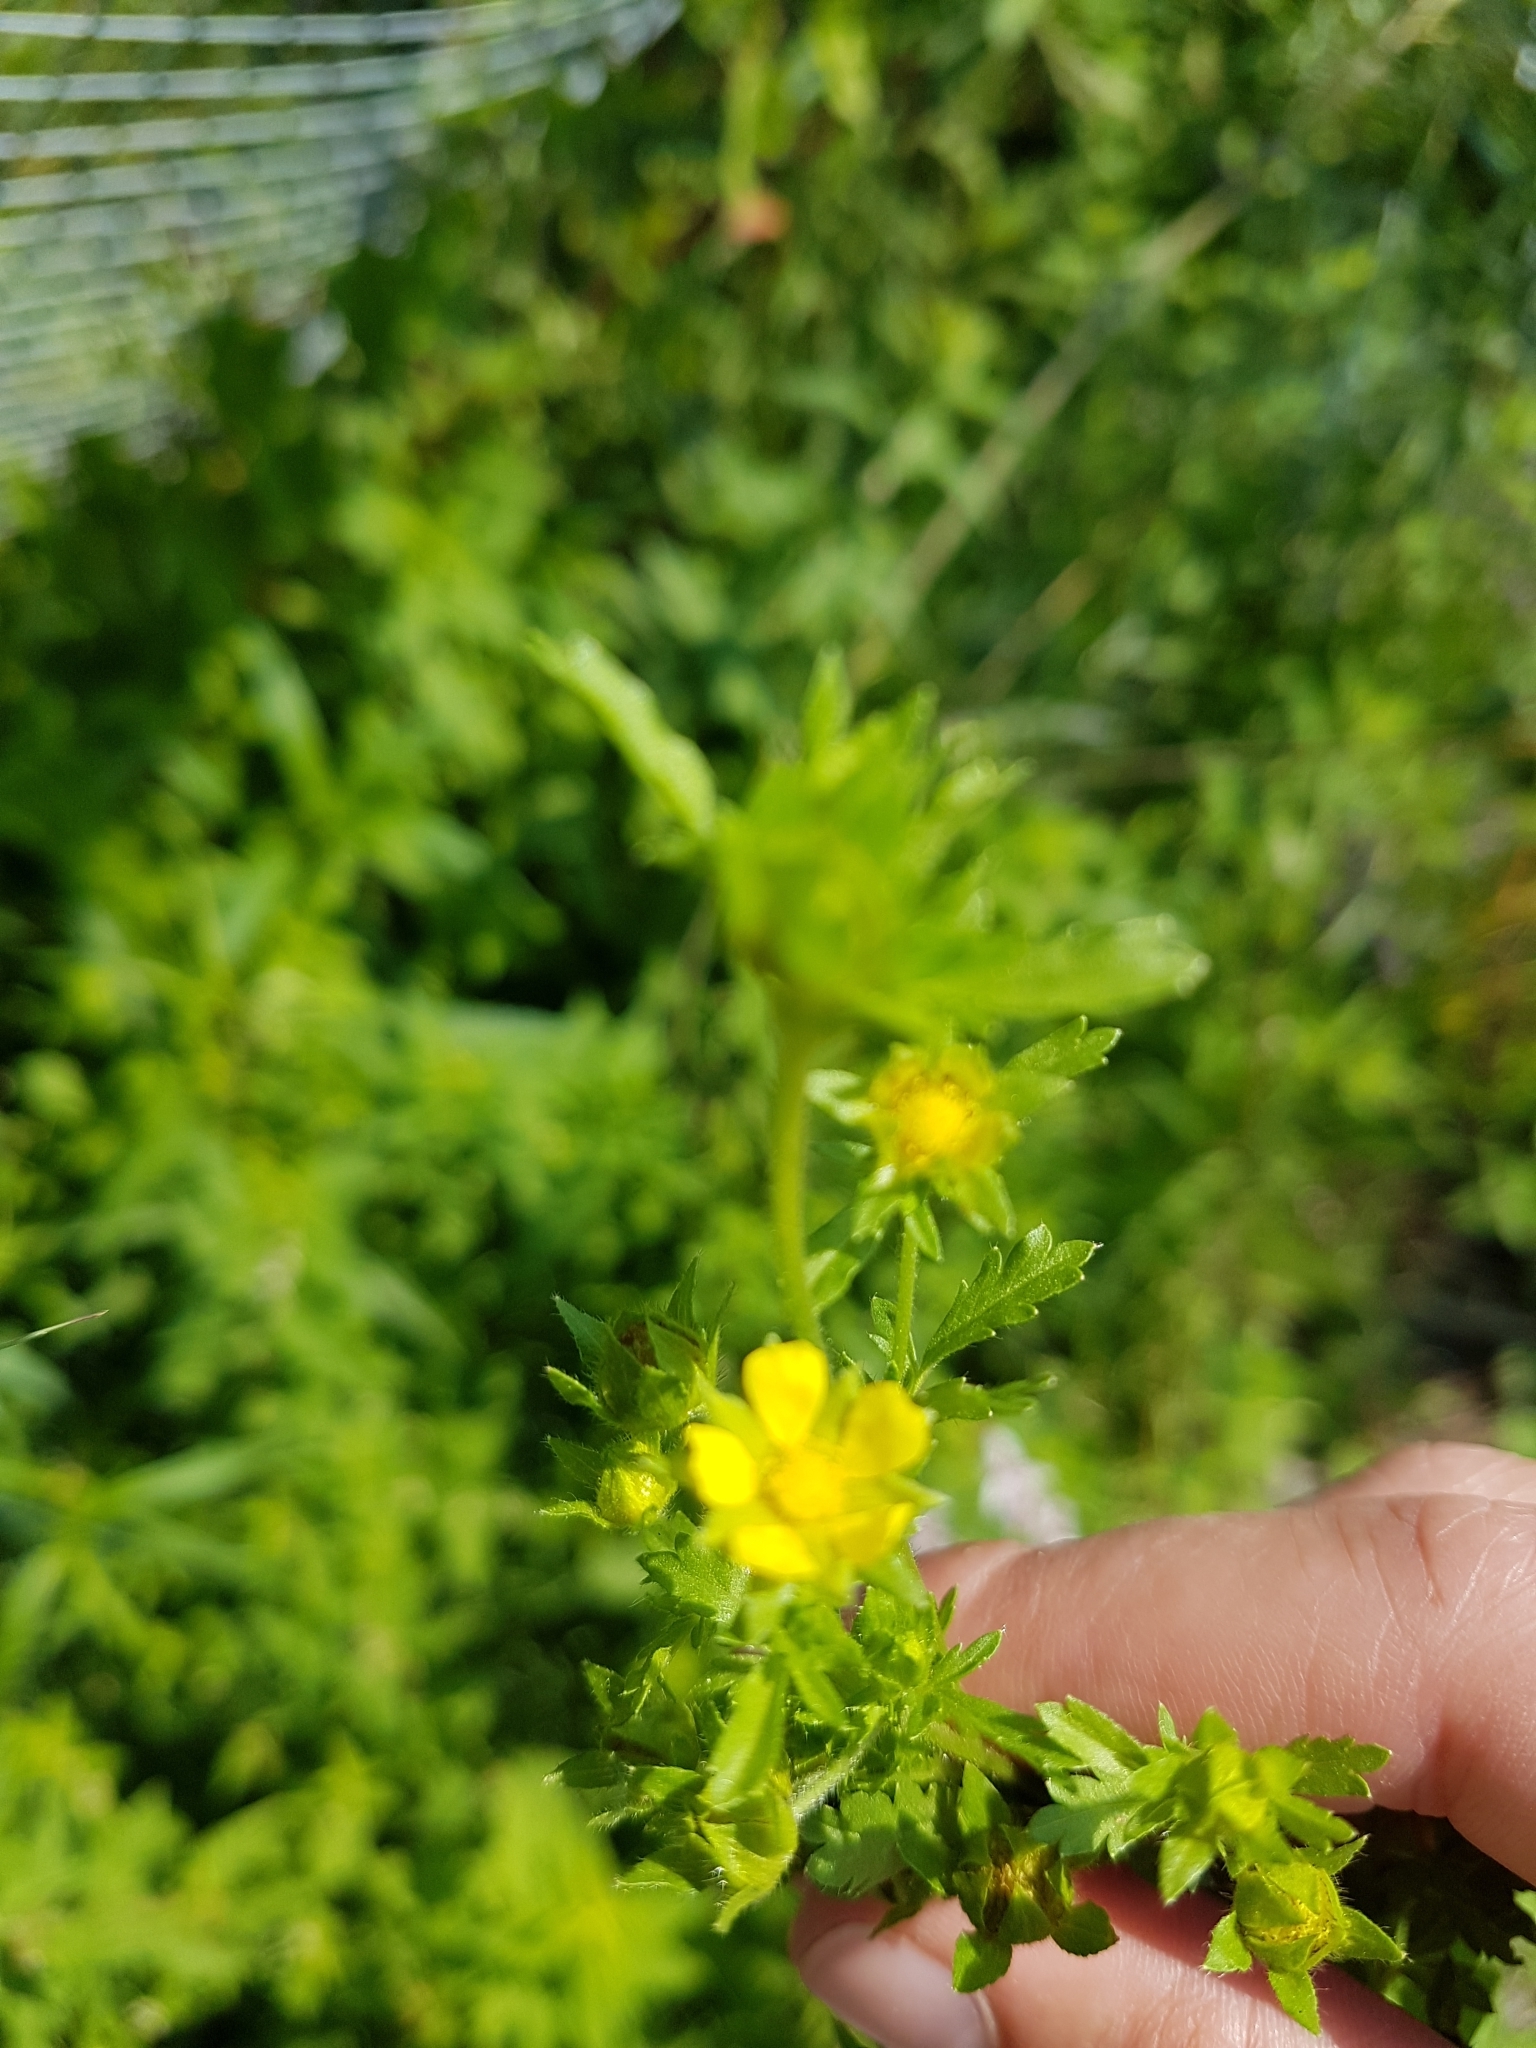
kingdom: Plantae
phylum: Tracheophyta
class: Magnoliopsida
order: Rosales
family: Rosaceae
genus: Potentilla
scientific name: Potentilla norvegica
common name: Ternate-leaved cinquefoil
